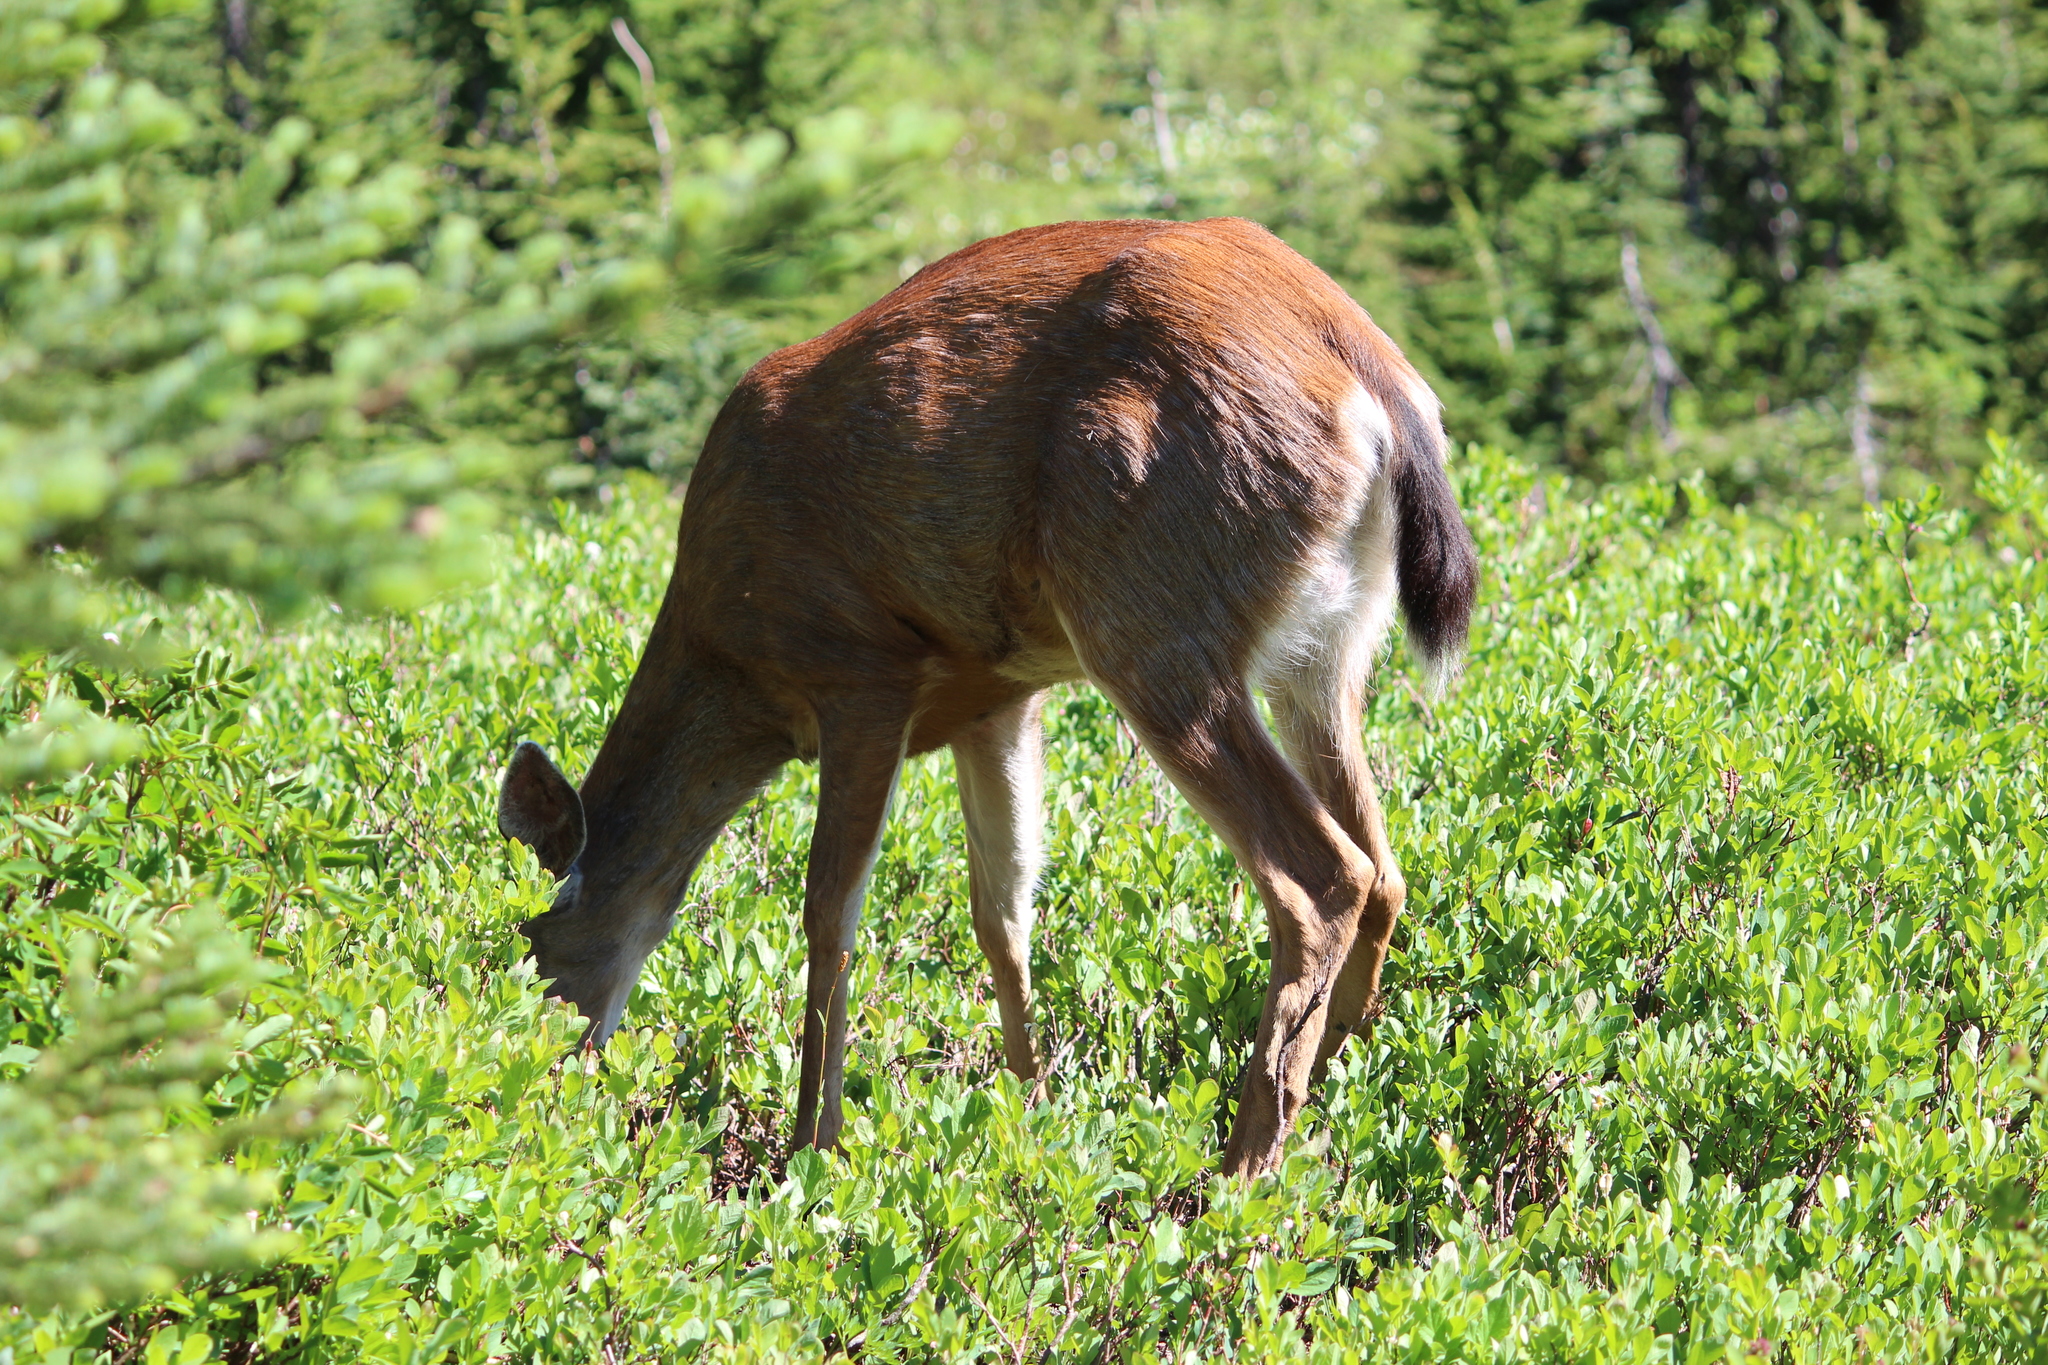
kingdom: Animalia
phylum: Chordata
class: Mammalia
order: Artiodactyla
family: Cervidae
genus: Odocoileus
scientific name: Odocoileus hemionus
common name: Mule deer
